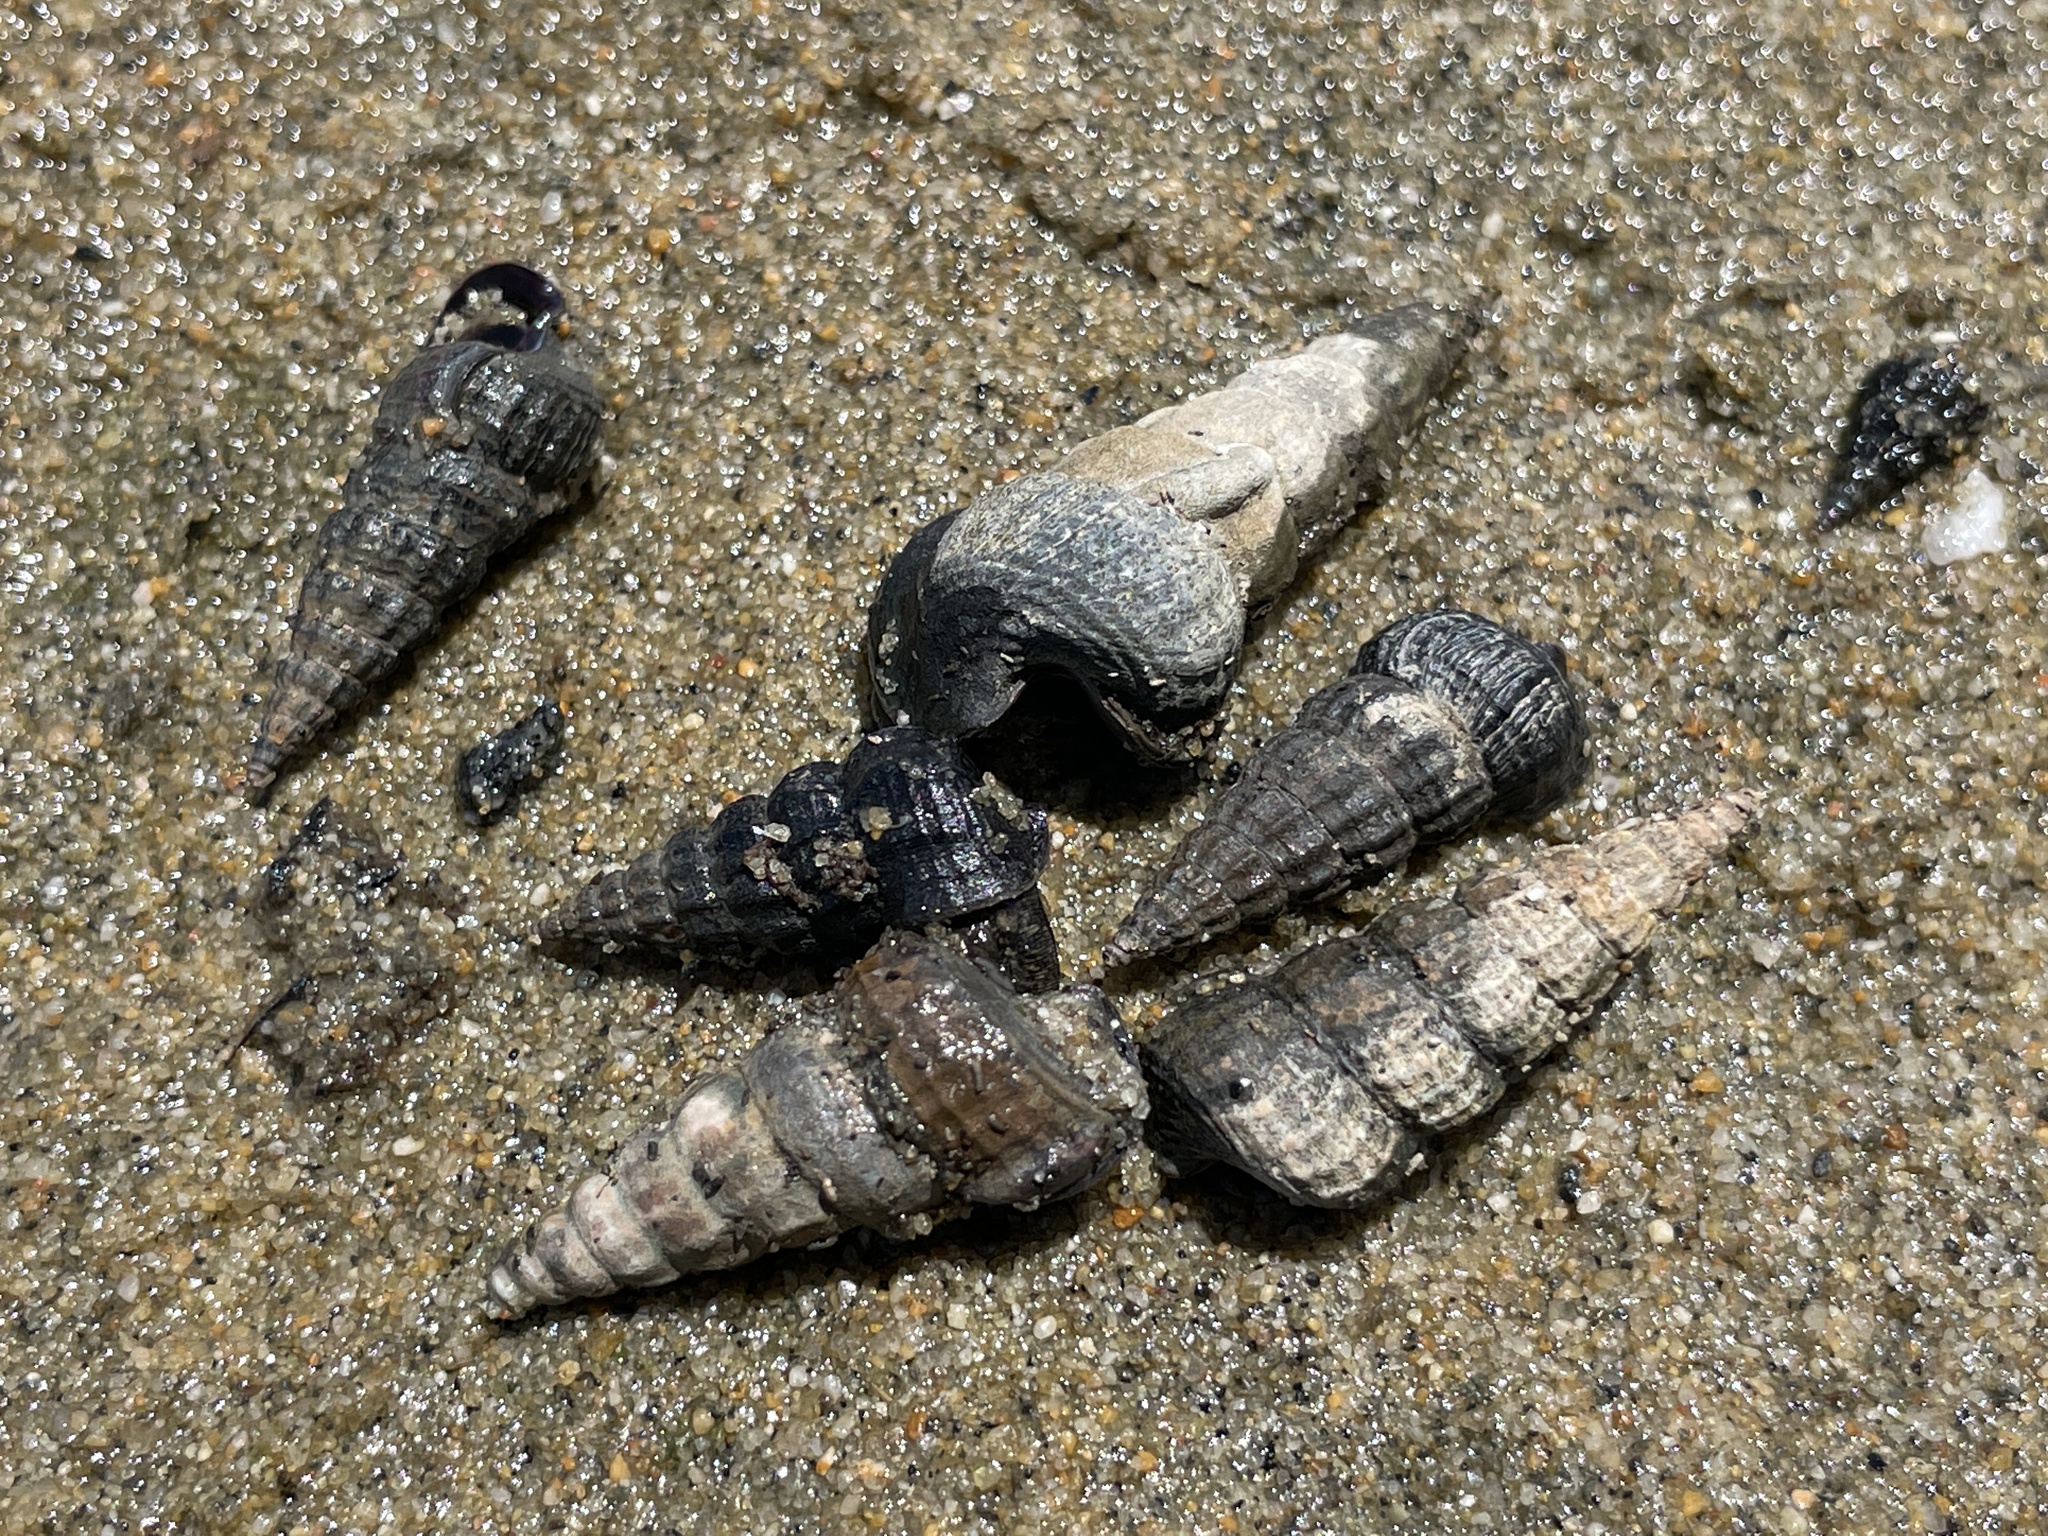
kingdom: Animalia
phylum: Mollusca
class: Gastropoda
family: Potamididae
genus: Cerithideopsis
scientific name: Cerithideopsis californica
